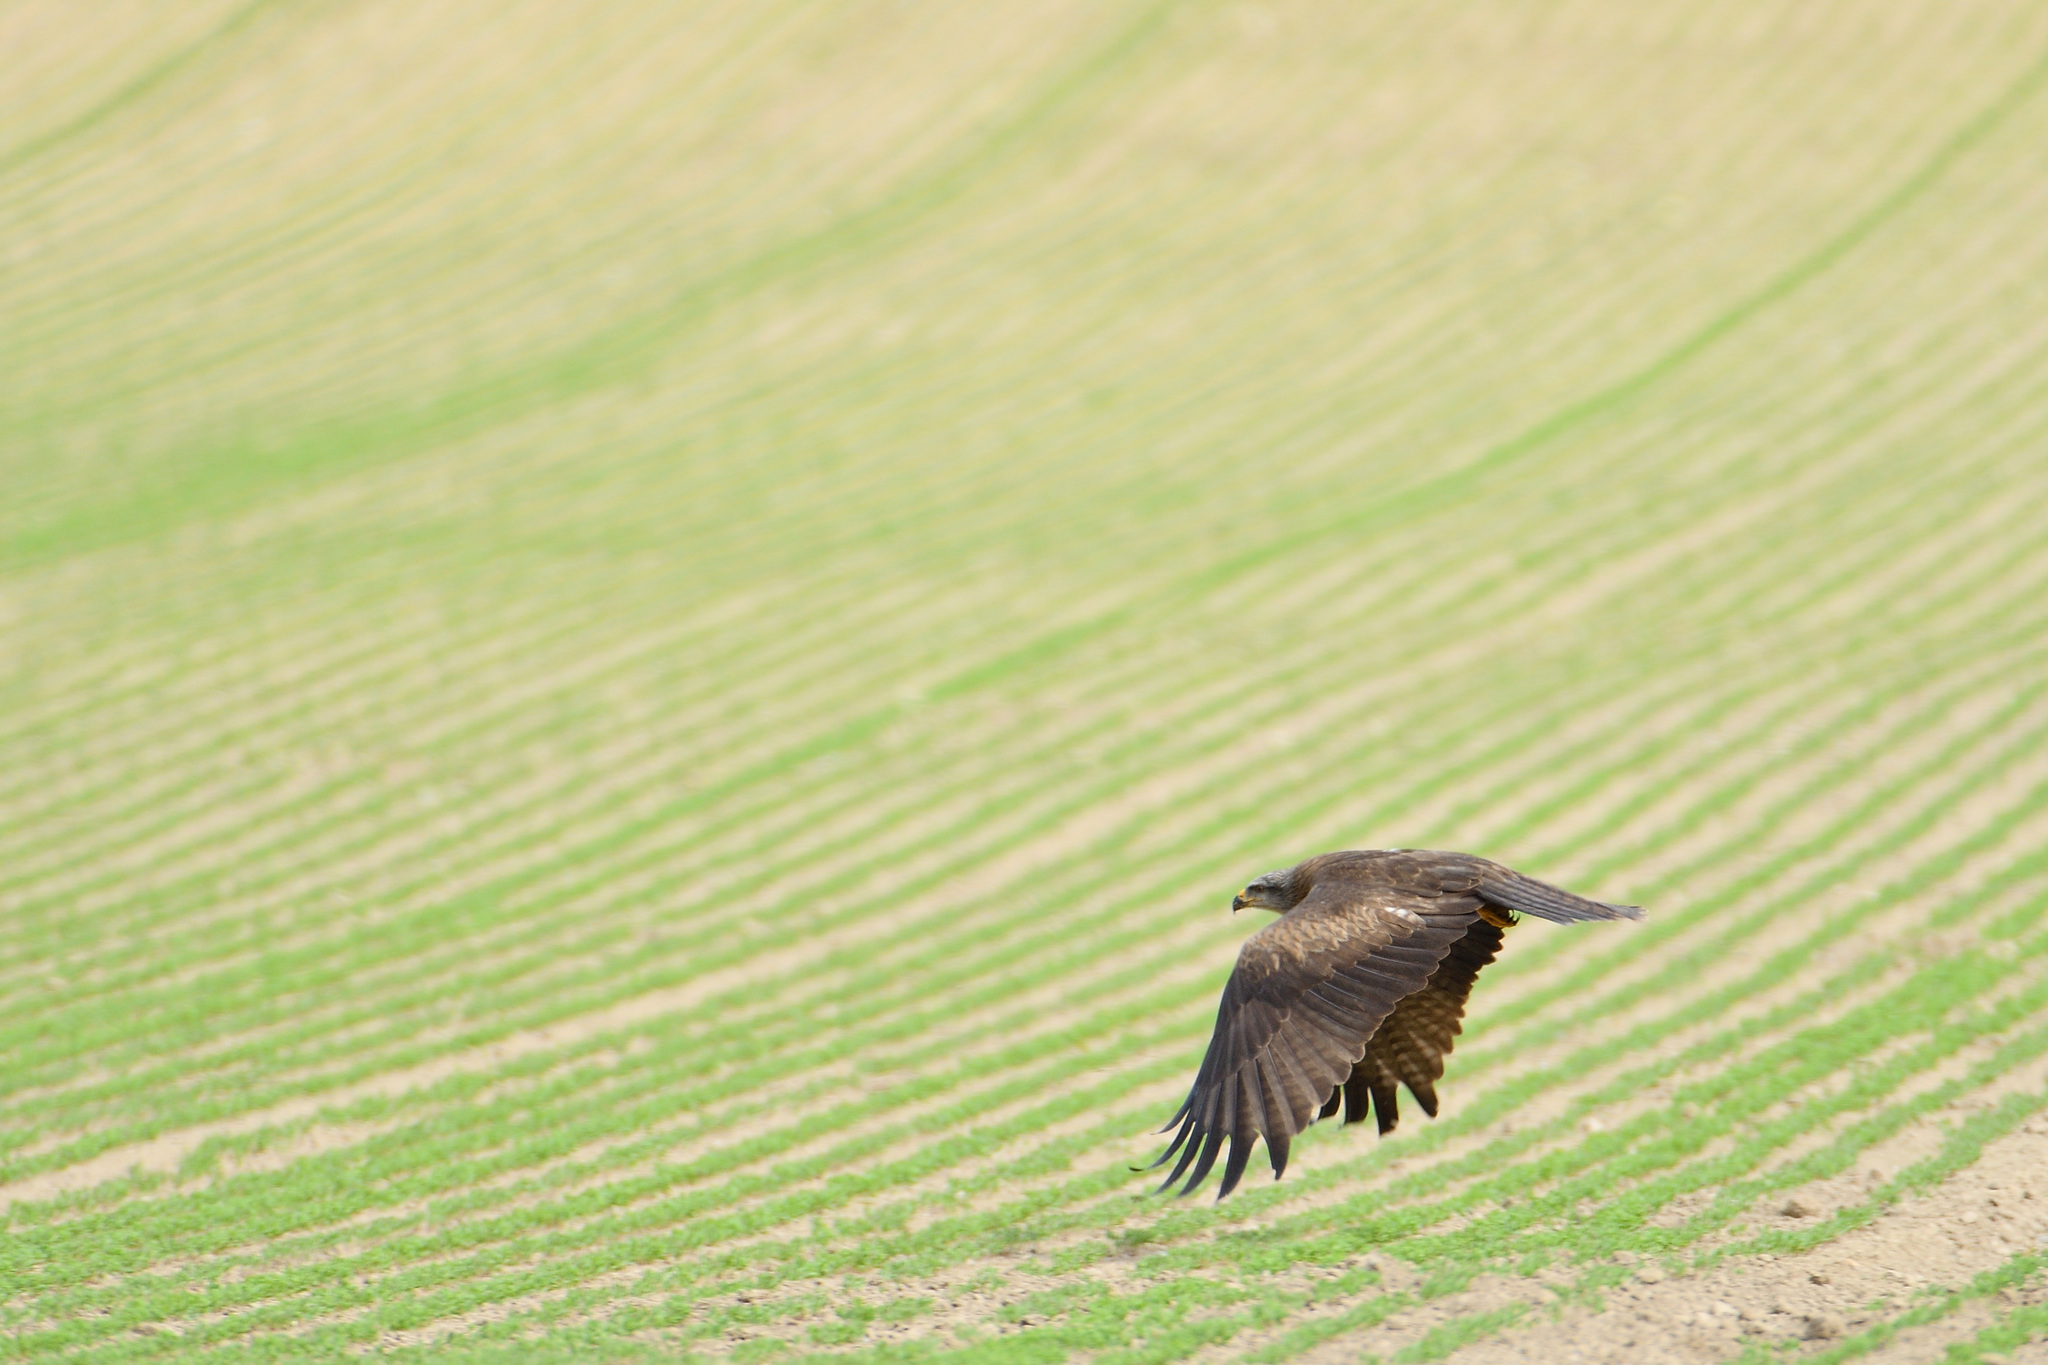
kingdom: Animalia
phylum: Chordata
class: Aves
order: Accipitriformes
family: Accipitridae
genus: Milvus
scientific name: Milvus migrans
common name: Black kite
